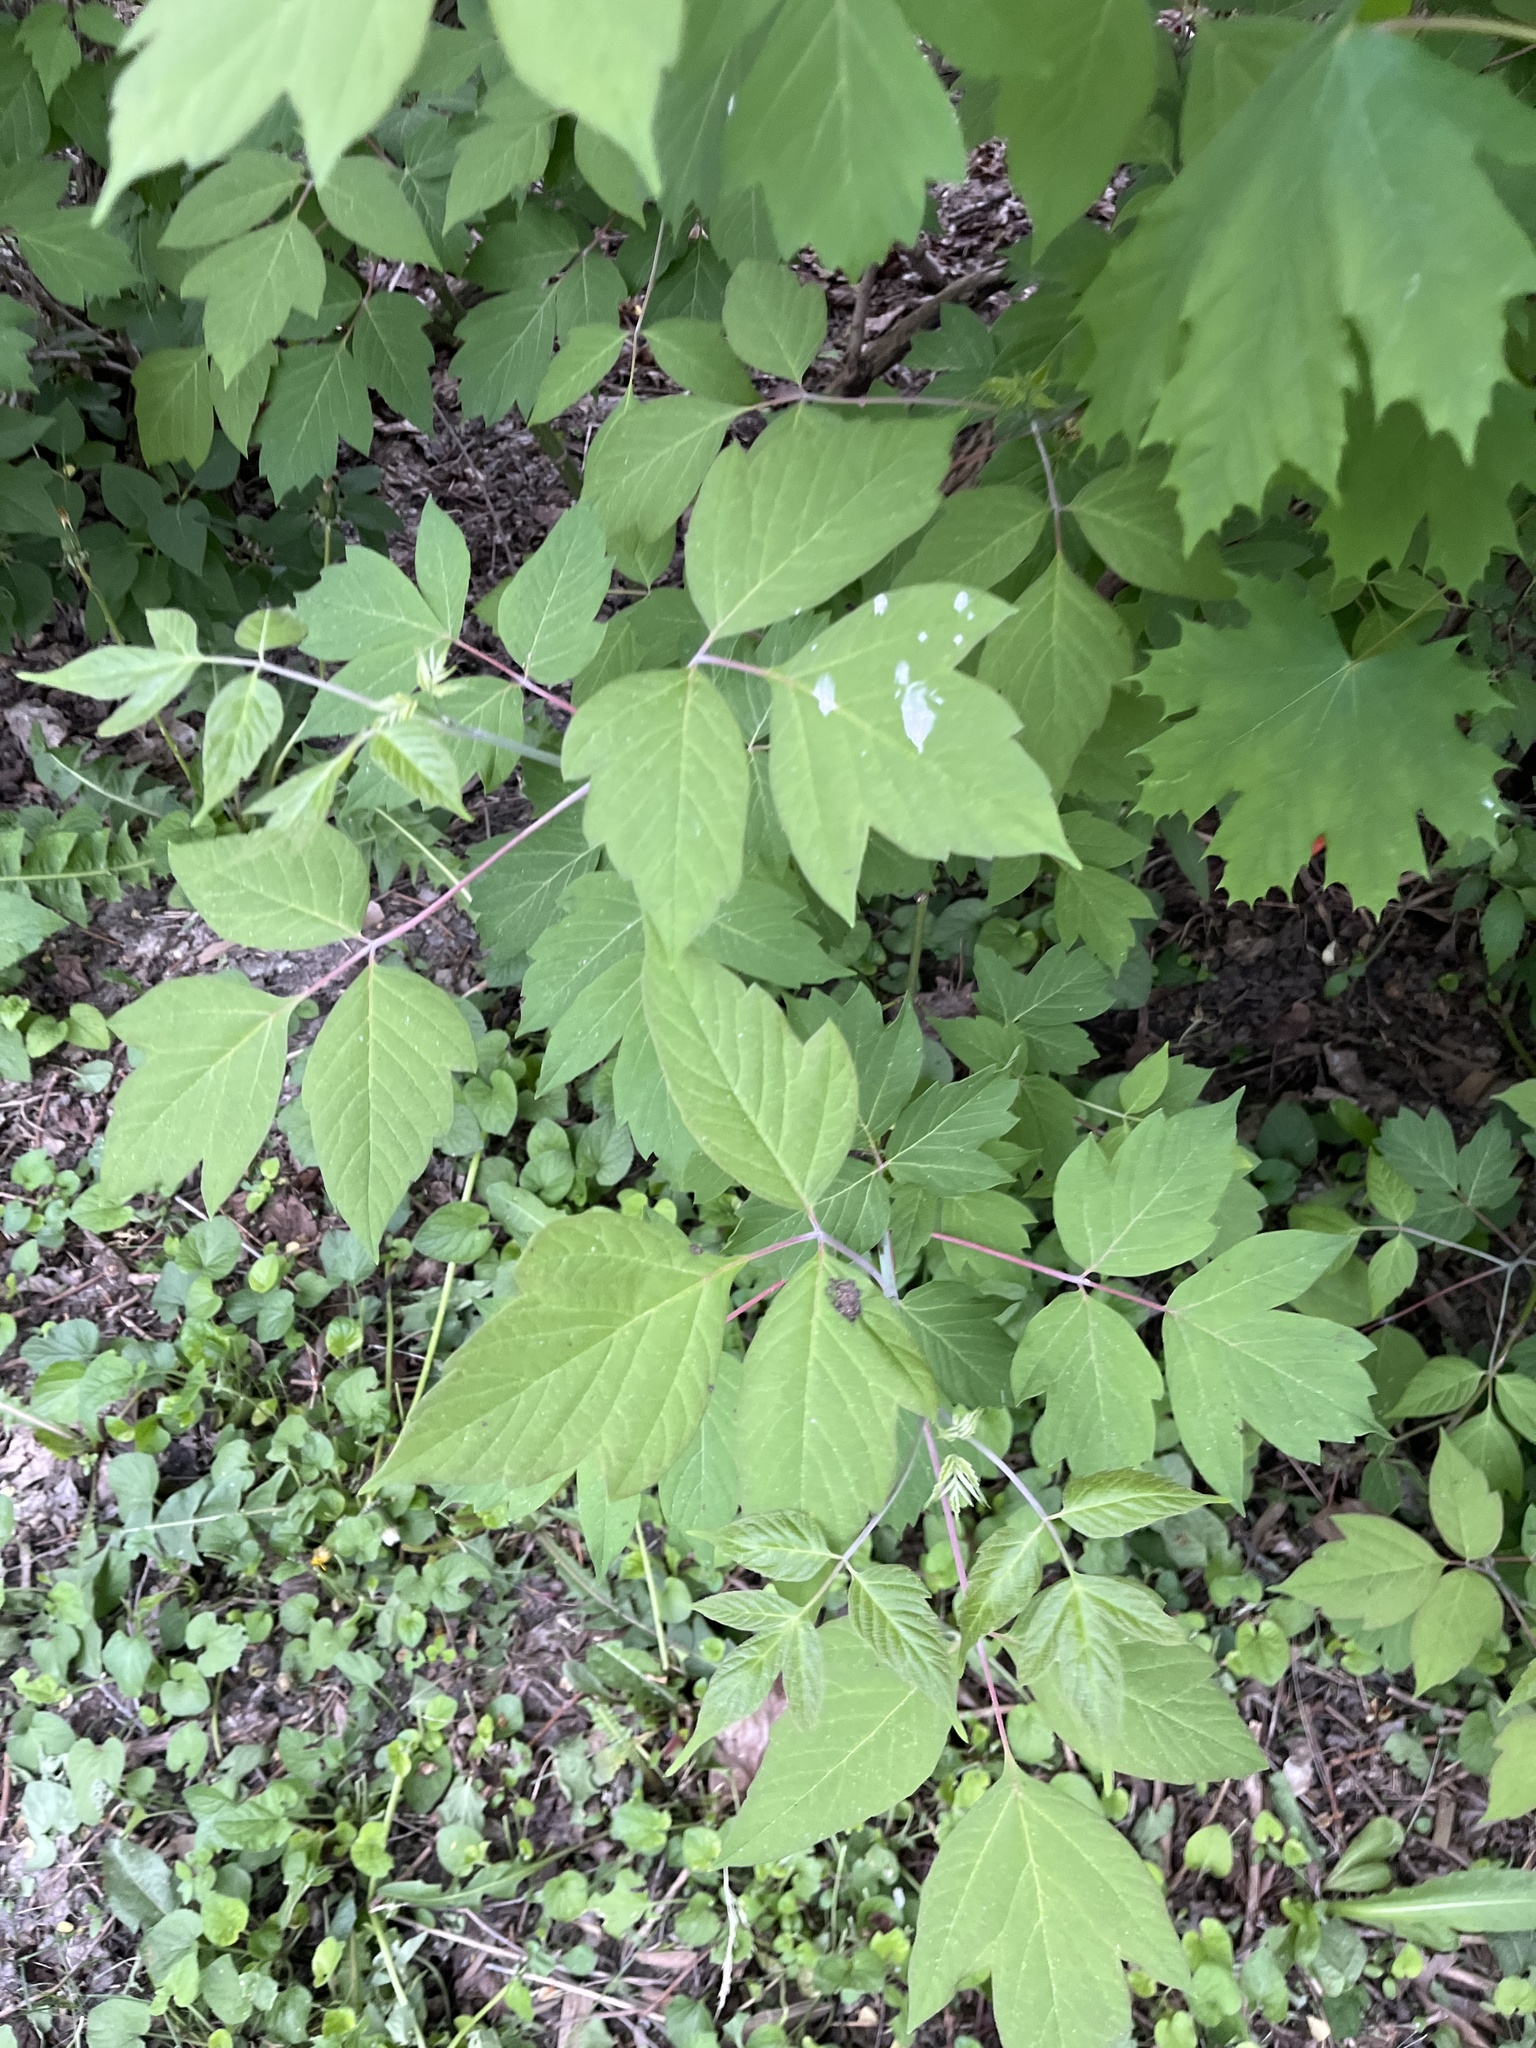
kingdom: Plantae
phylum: Tracheophyta
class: Magnoliopsida
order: Sapindales
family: Sapindaceae
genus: Acer
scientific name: Acer negundo
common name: Ashleaf maple
